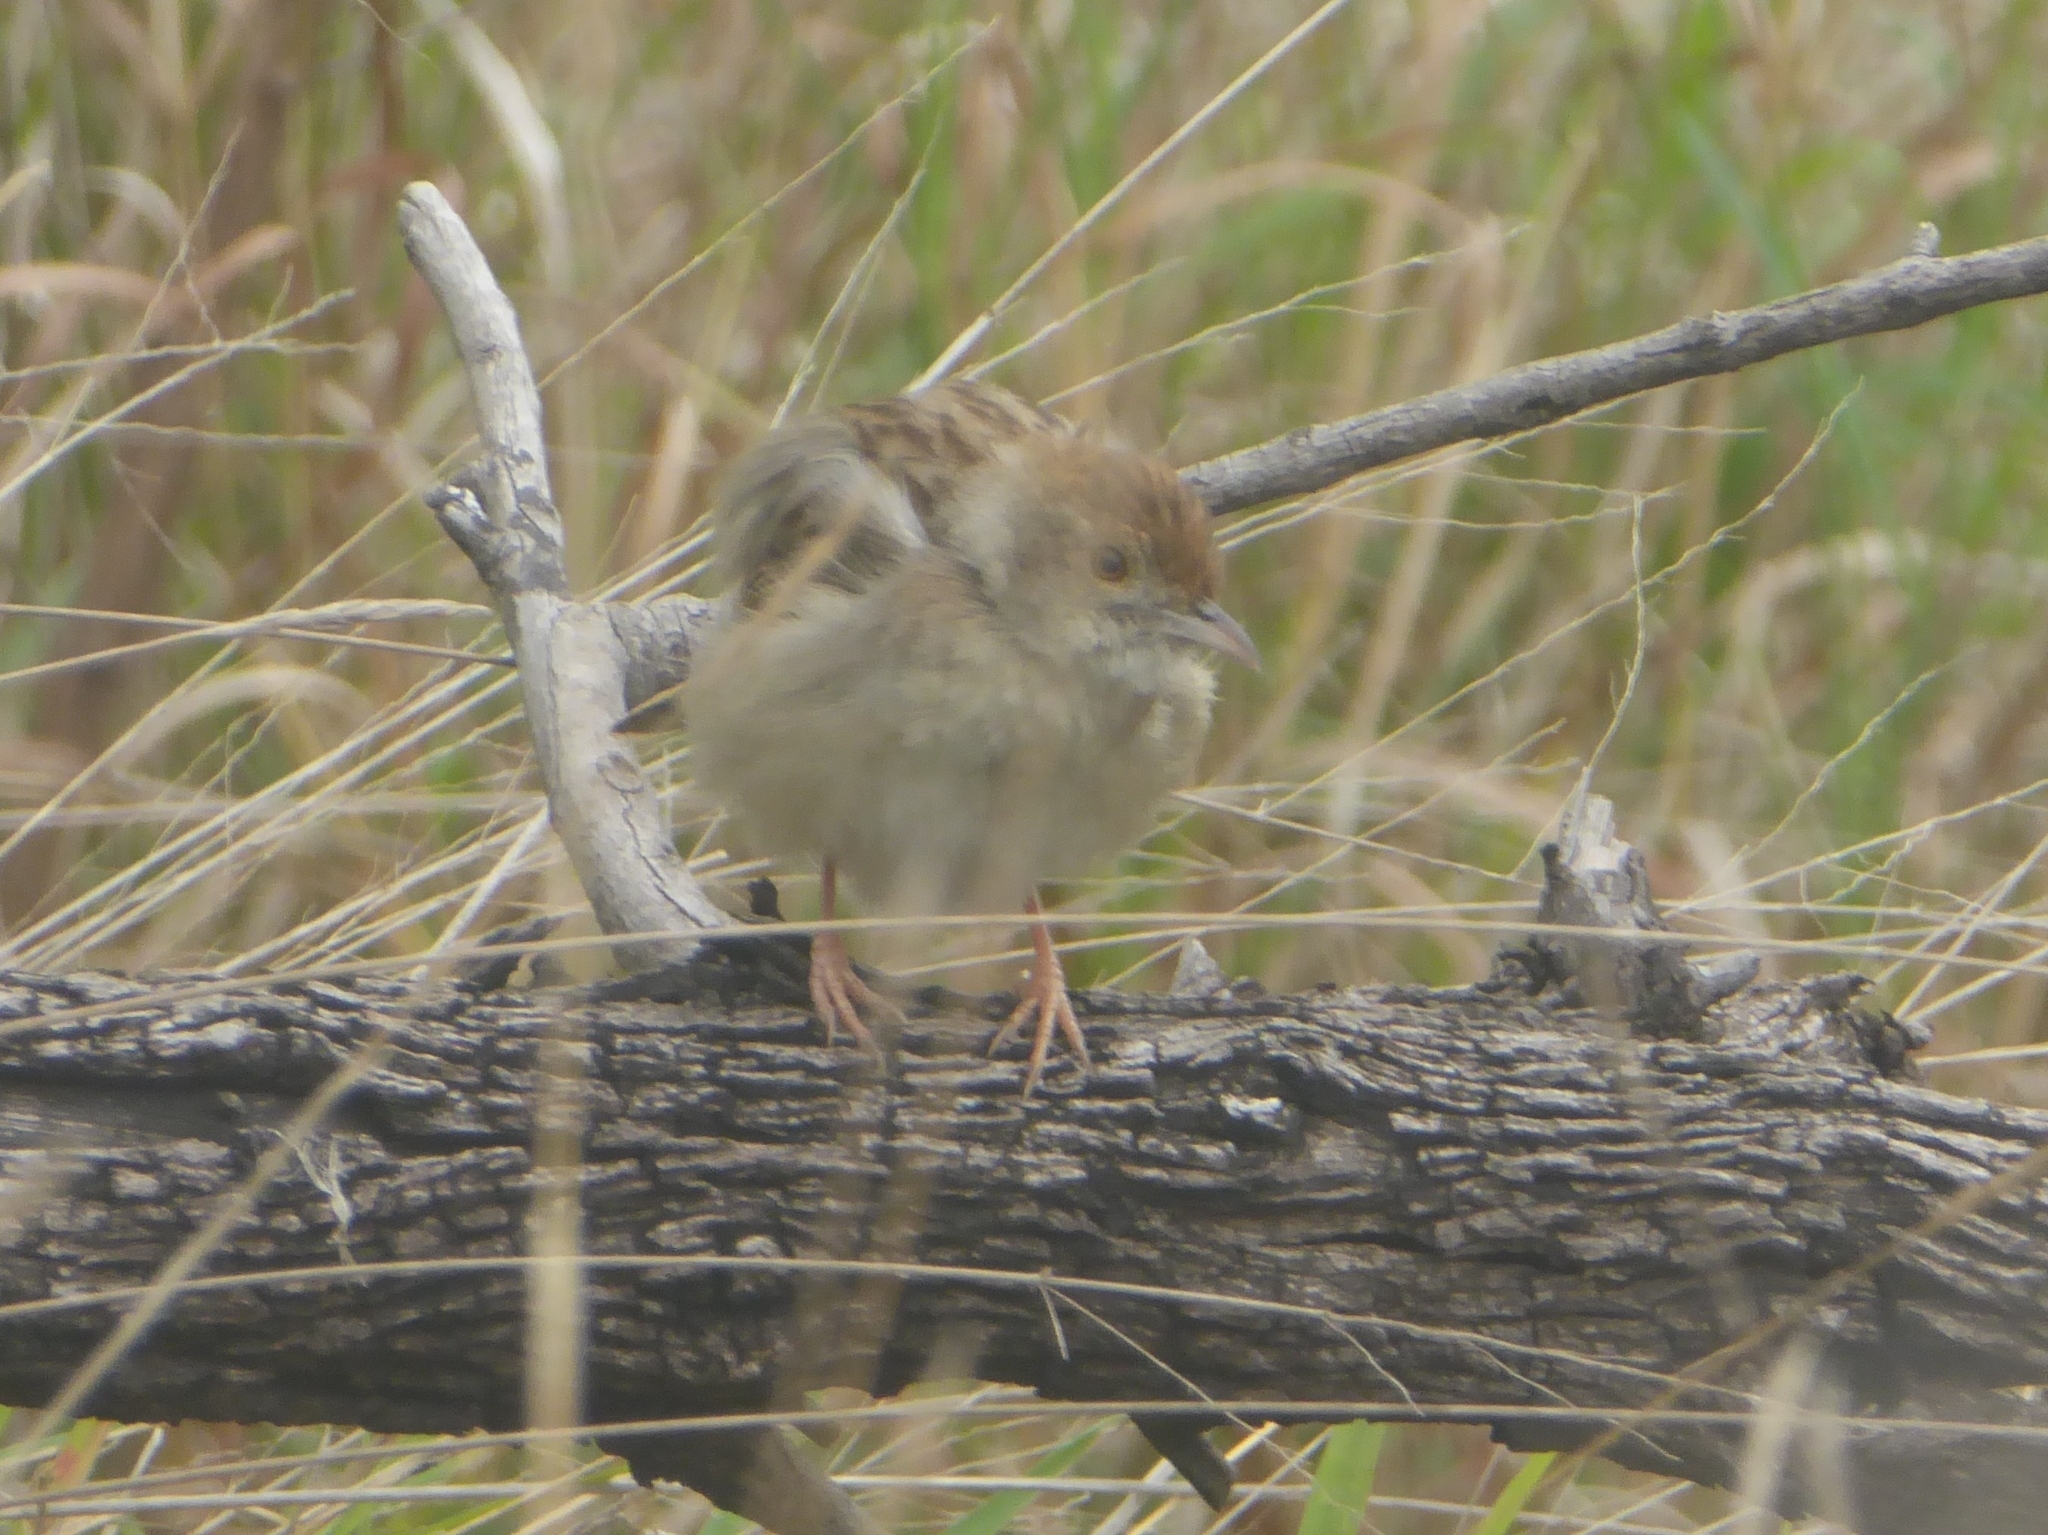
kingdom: Animalia
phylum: Chordata
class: Aves
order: Passeriformes
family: Cisticolidae
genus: Cisticola
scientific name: Cisticola chiniana
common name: Rattling cisticola
